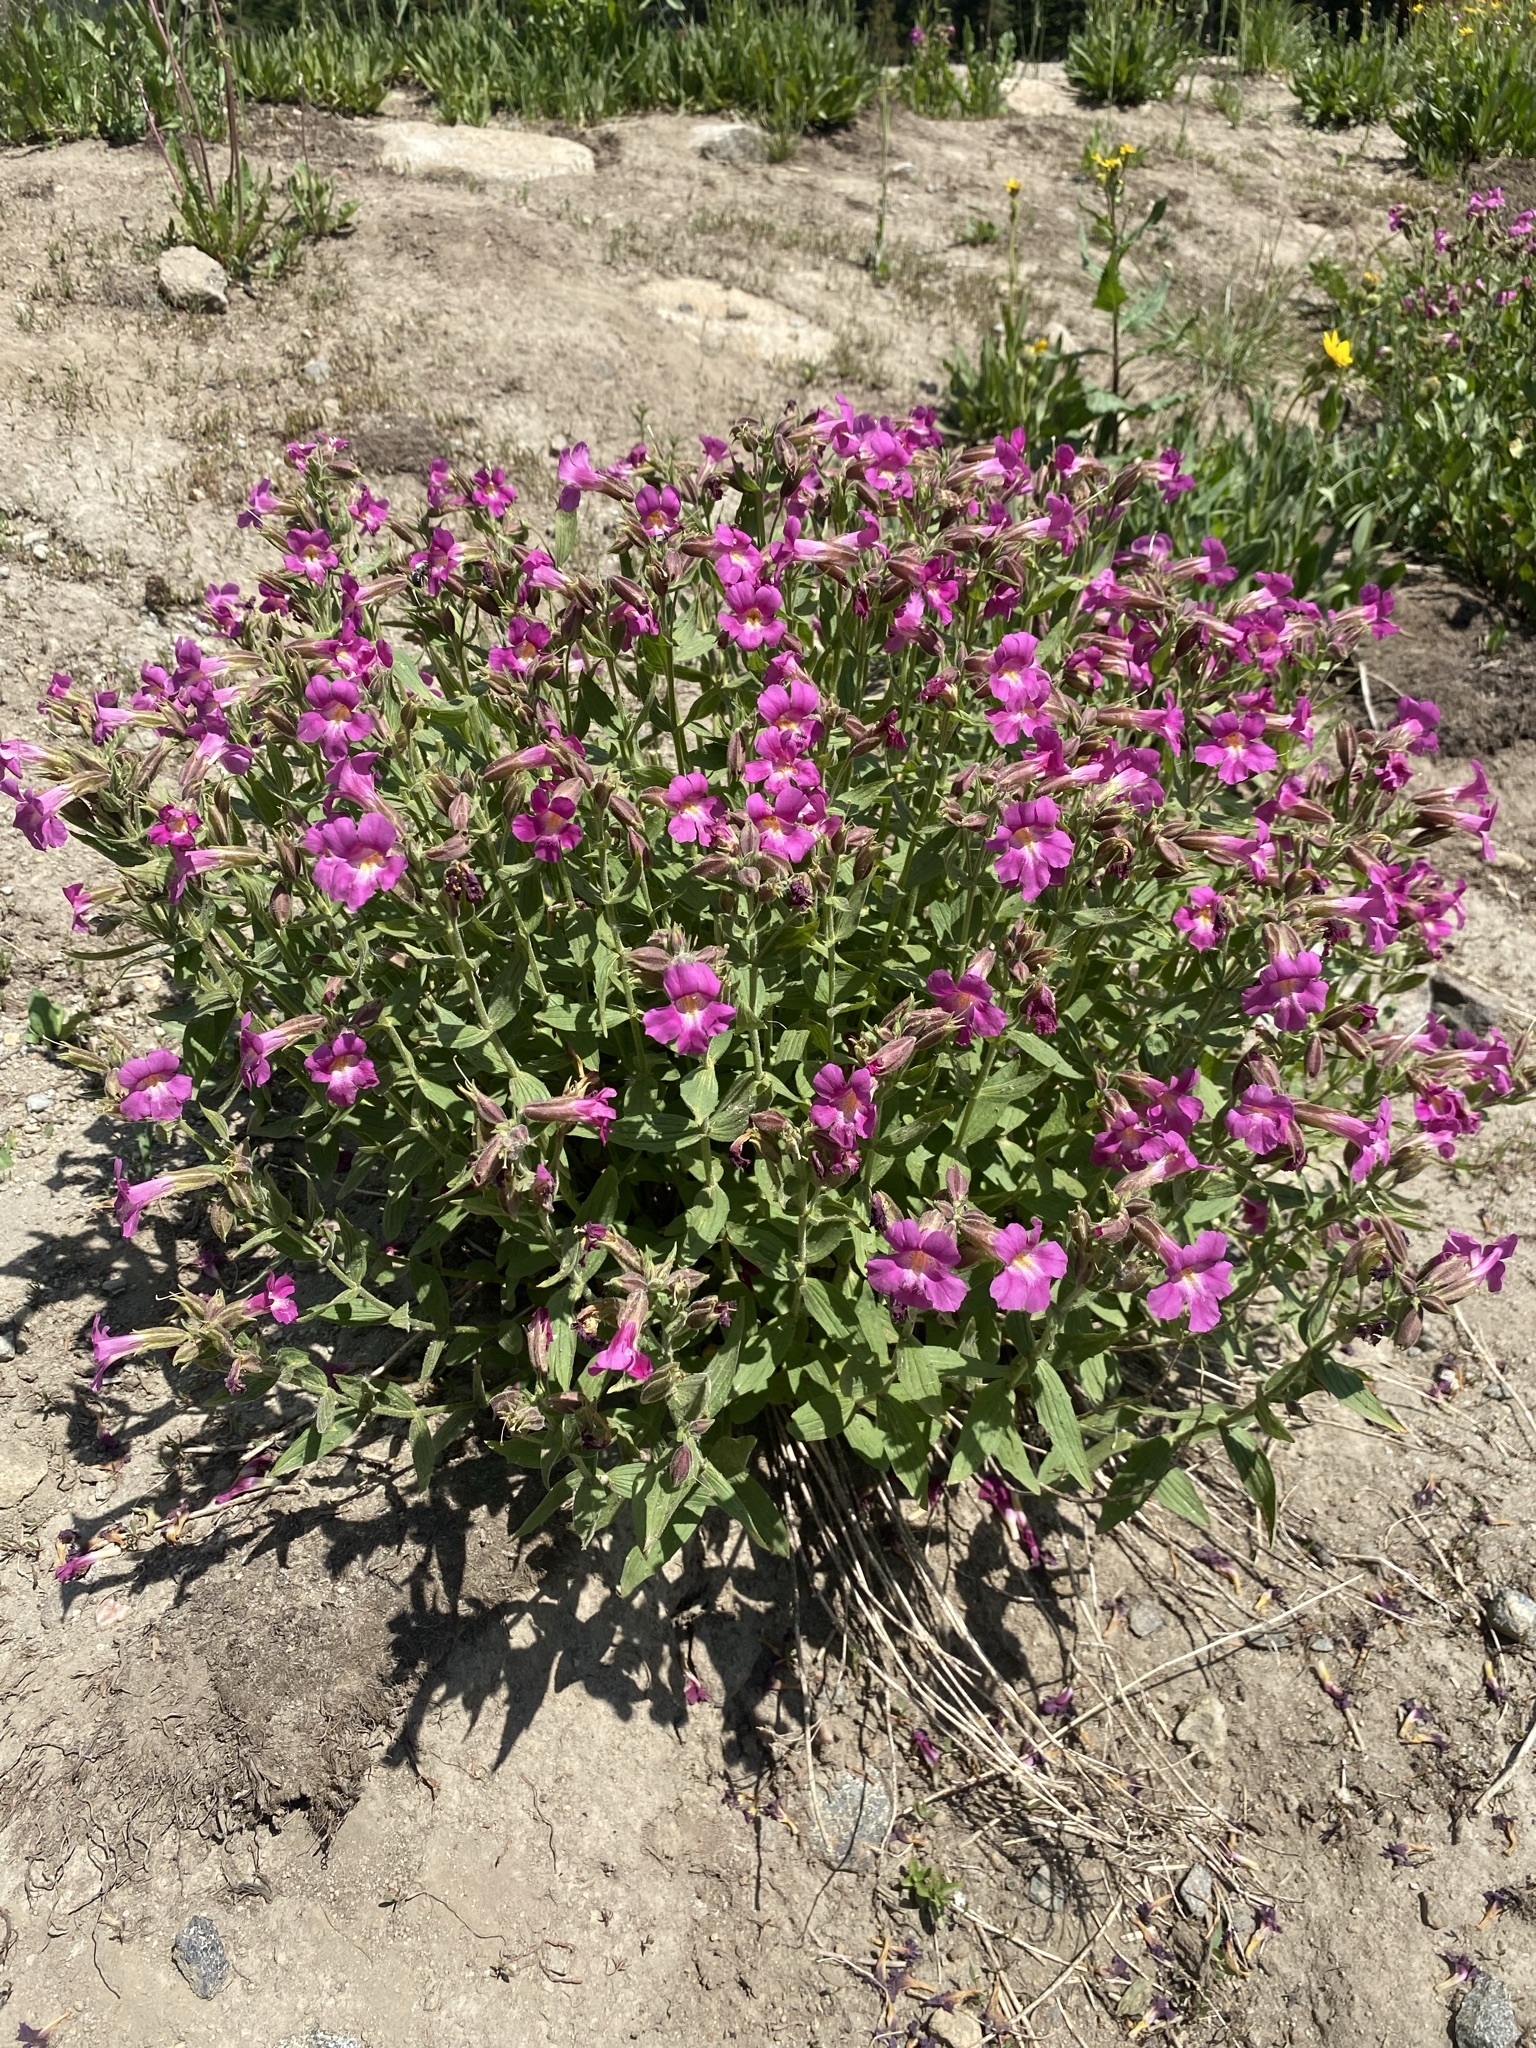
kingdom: Plantae
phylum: Tracheophyta
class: Magnoliopsida
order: Lamiales
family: Phrymaceae
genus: Erythranthe
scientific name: Erythranthe lewisii
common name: Lewis's monkey-flower
